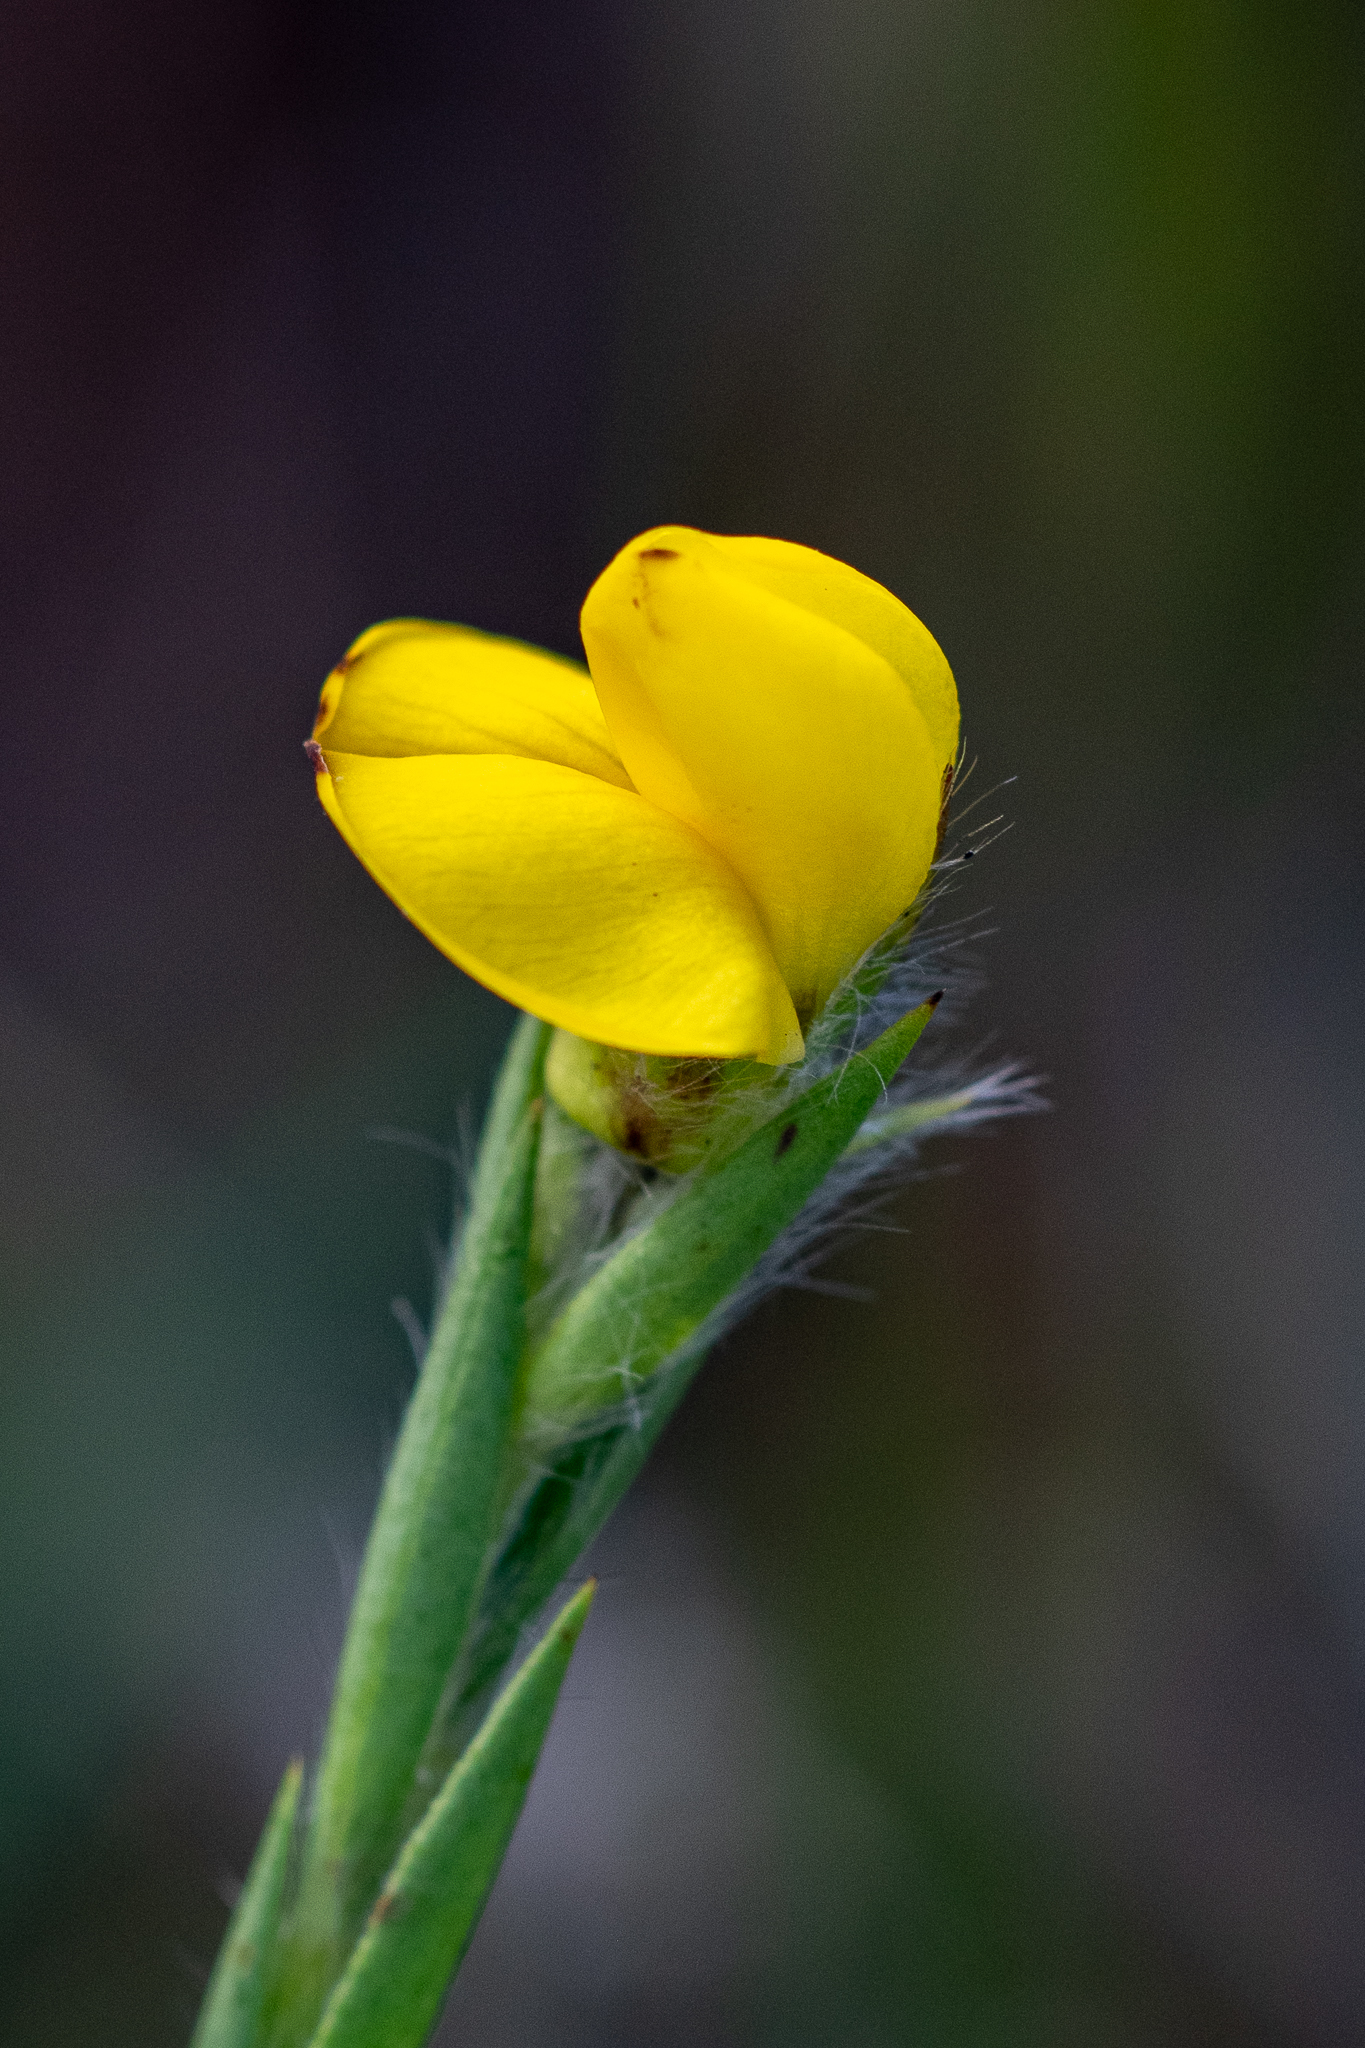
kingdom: Plantae
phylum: Tracheophyta
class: Magnoliopsida
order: Fabales
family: Fabaceae
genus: Liparia
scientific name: Liparia angustifolia
